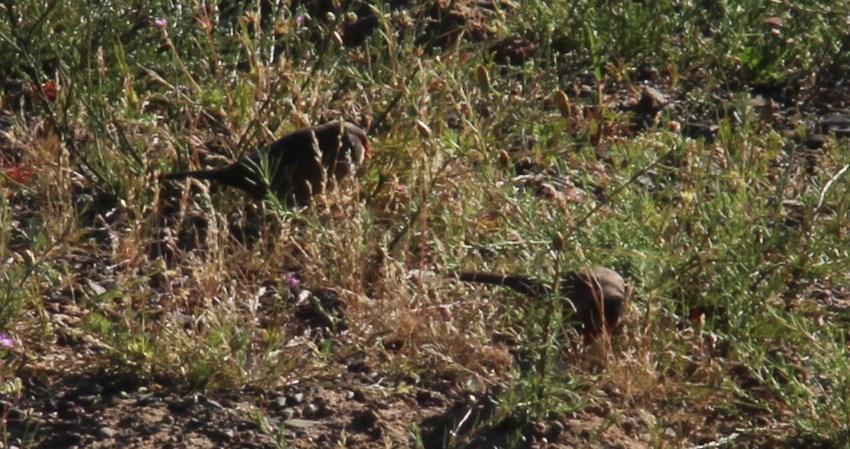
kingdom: Animalia
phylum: Chordata
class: Aves
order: Passeriformes
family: Estrildidae
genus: Estrilda
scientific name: Estrilda astrild
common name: Common waxbill
